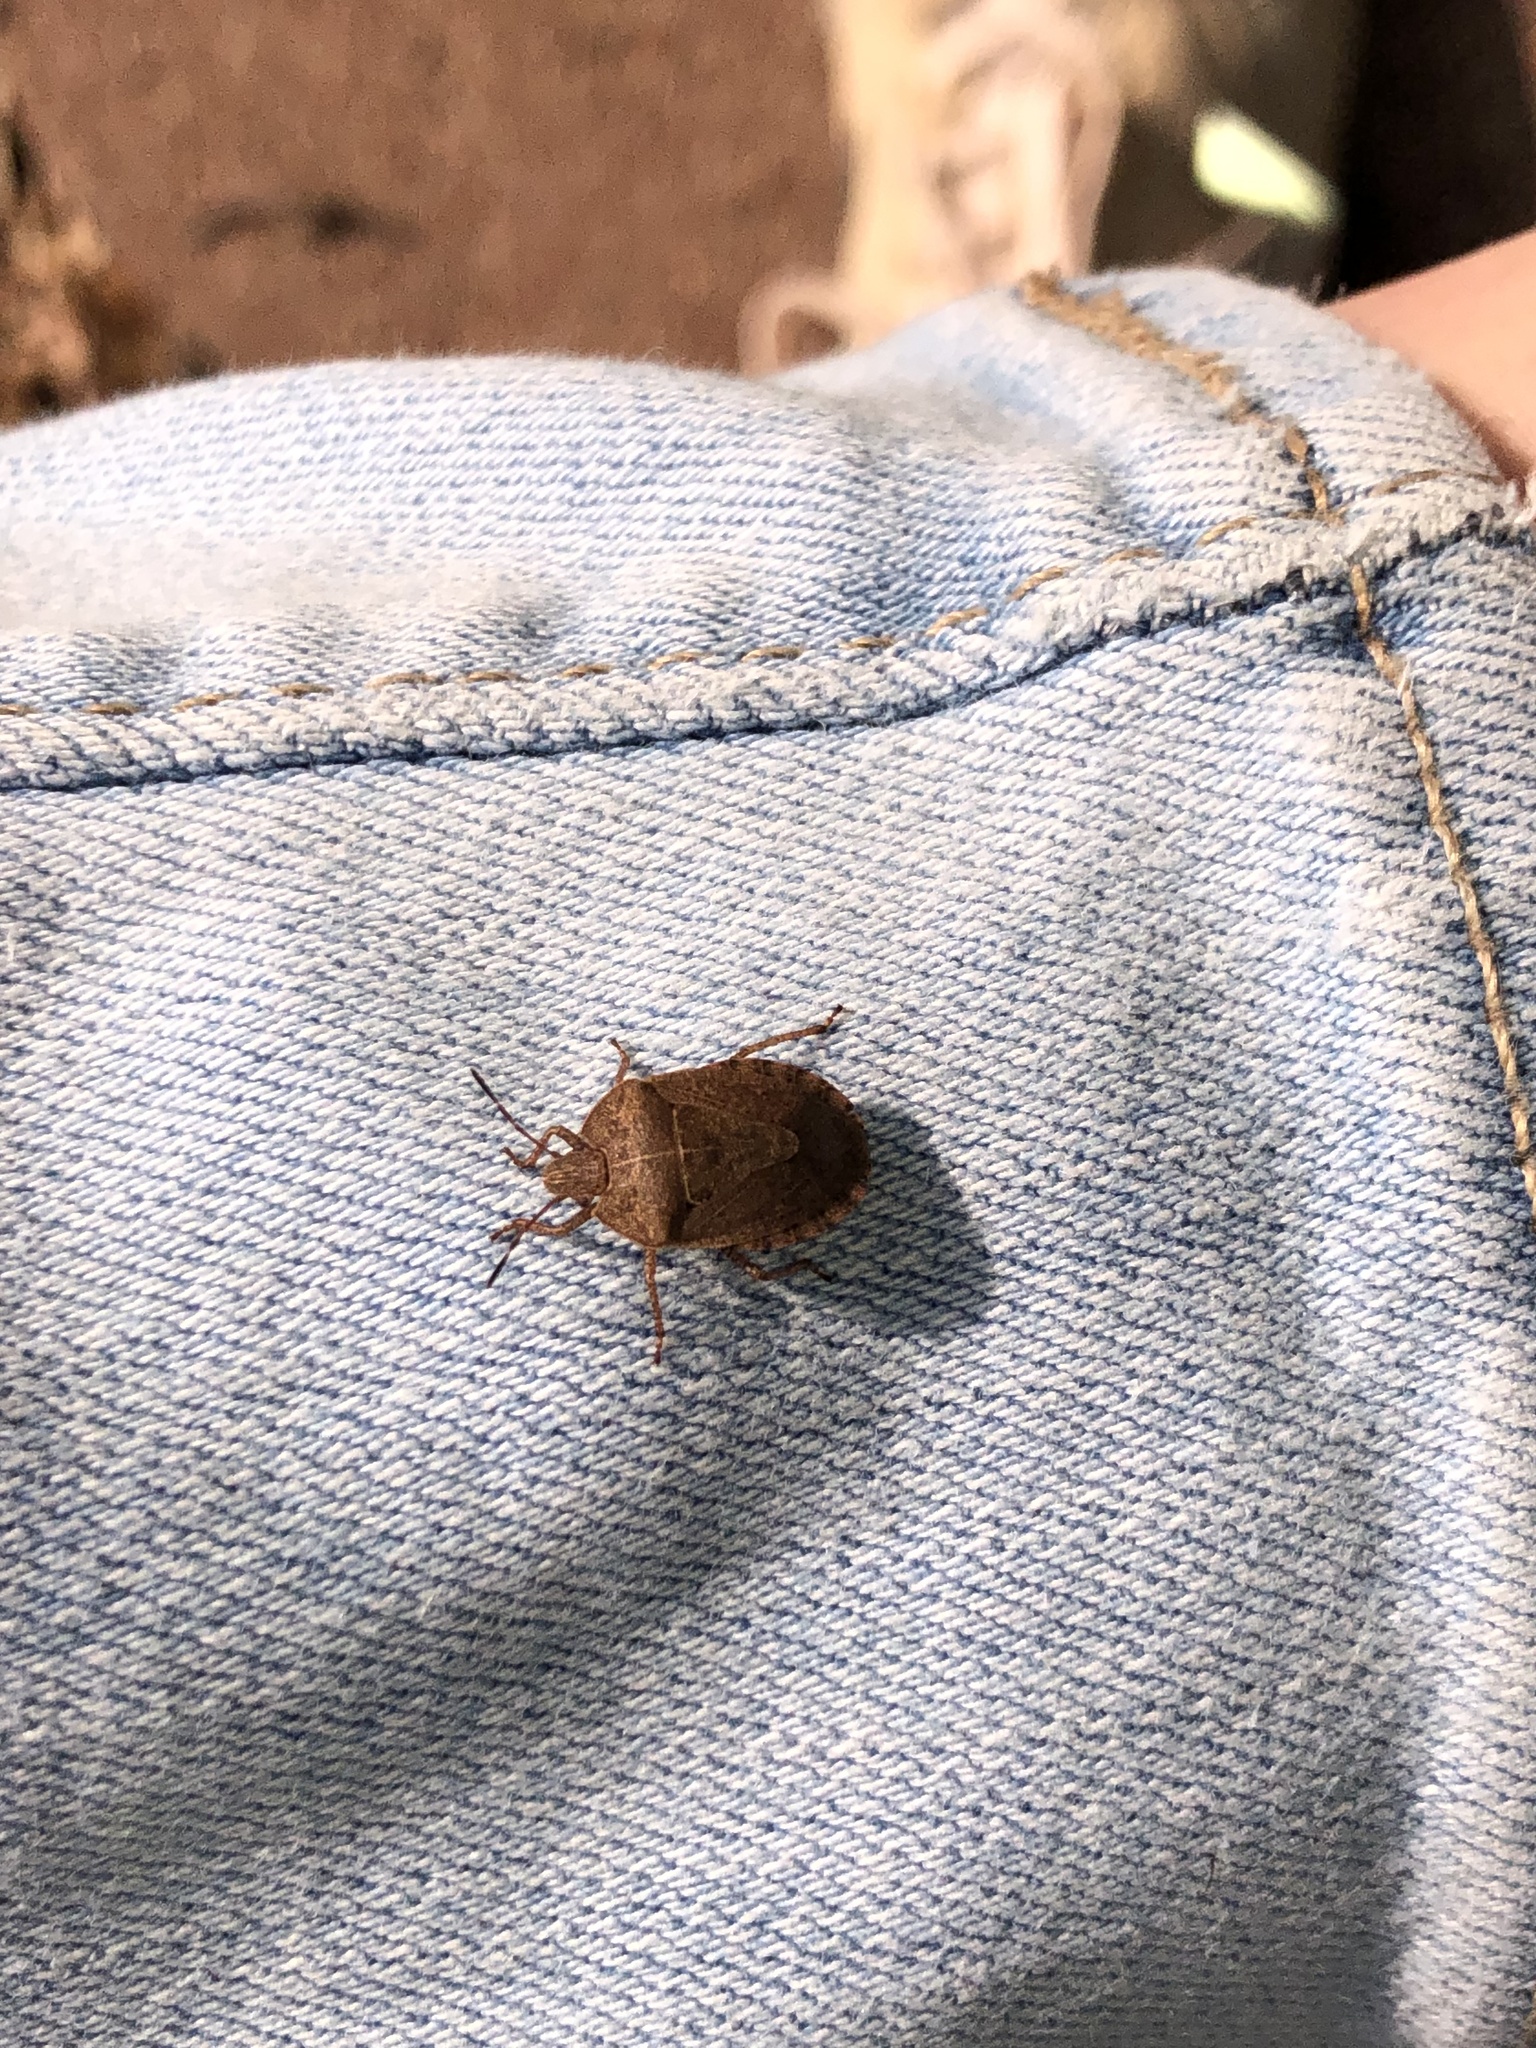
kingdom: Animalia
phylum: Arthropoda
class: Insecta
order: Hemiptera
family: Pentatomidae
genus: Menecles
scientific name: Menecles insertus
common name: Elf shoe stink bug
